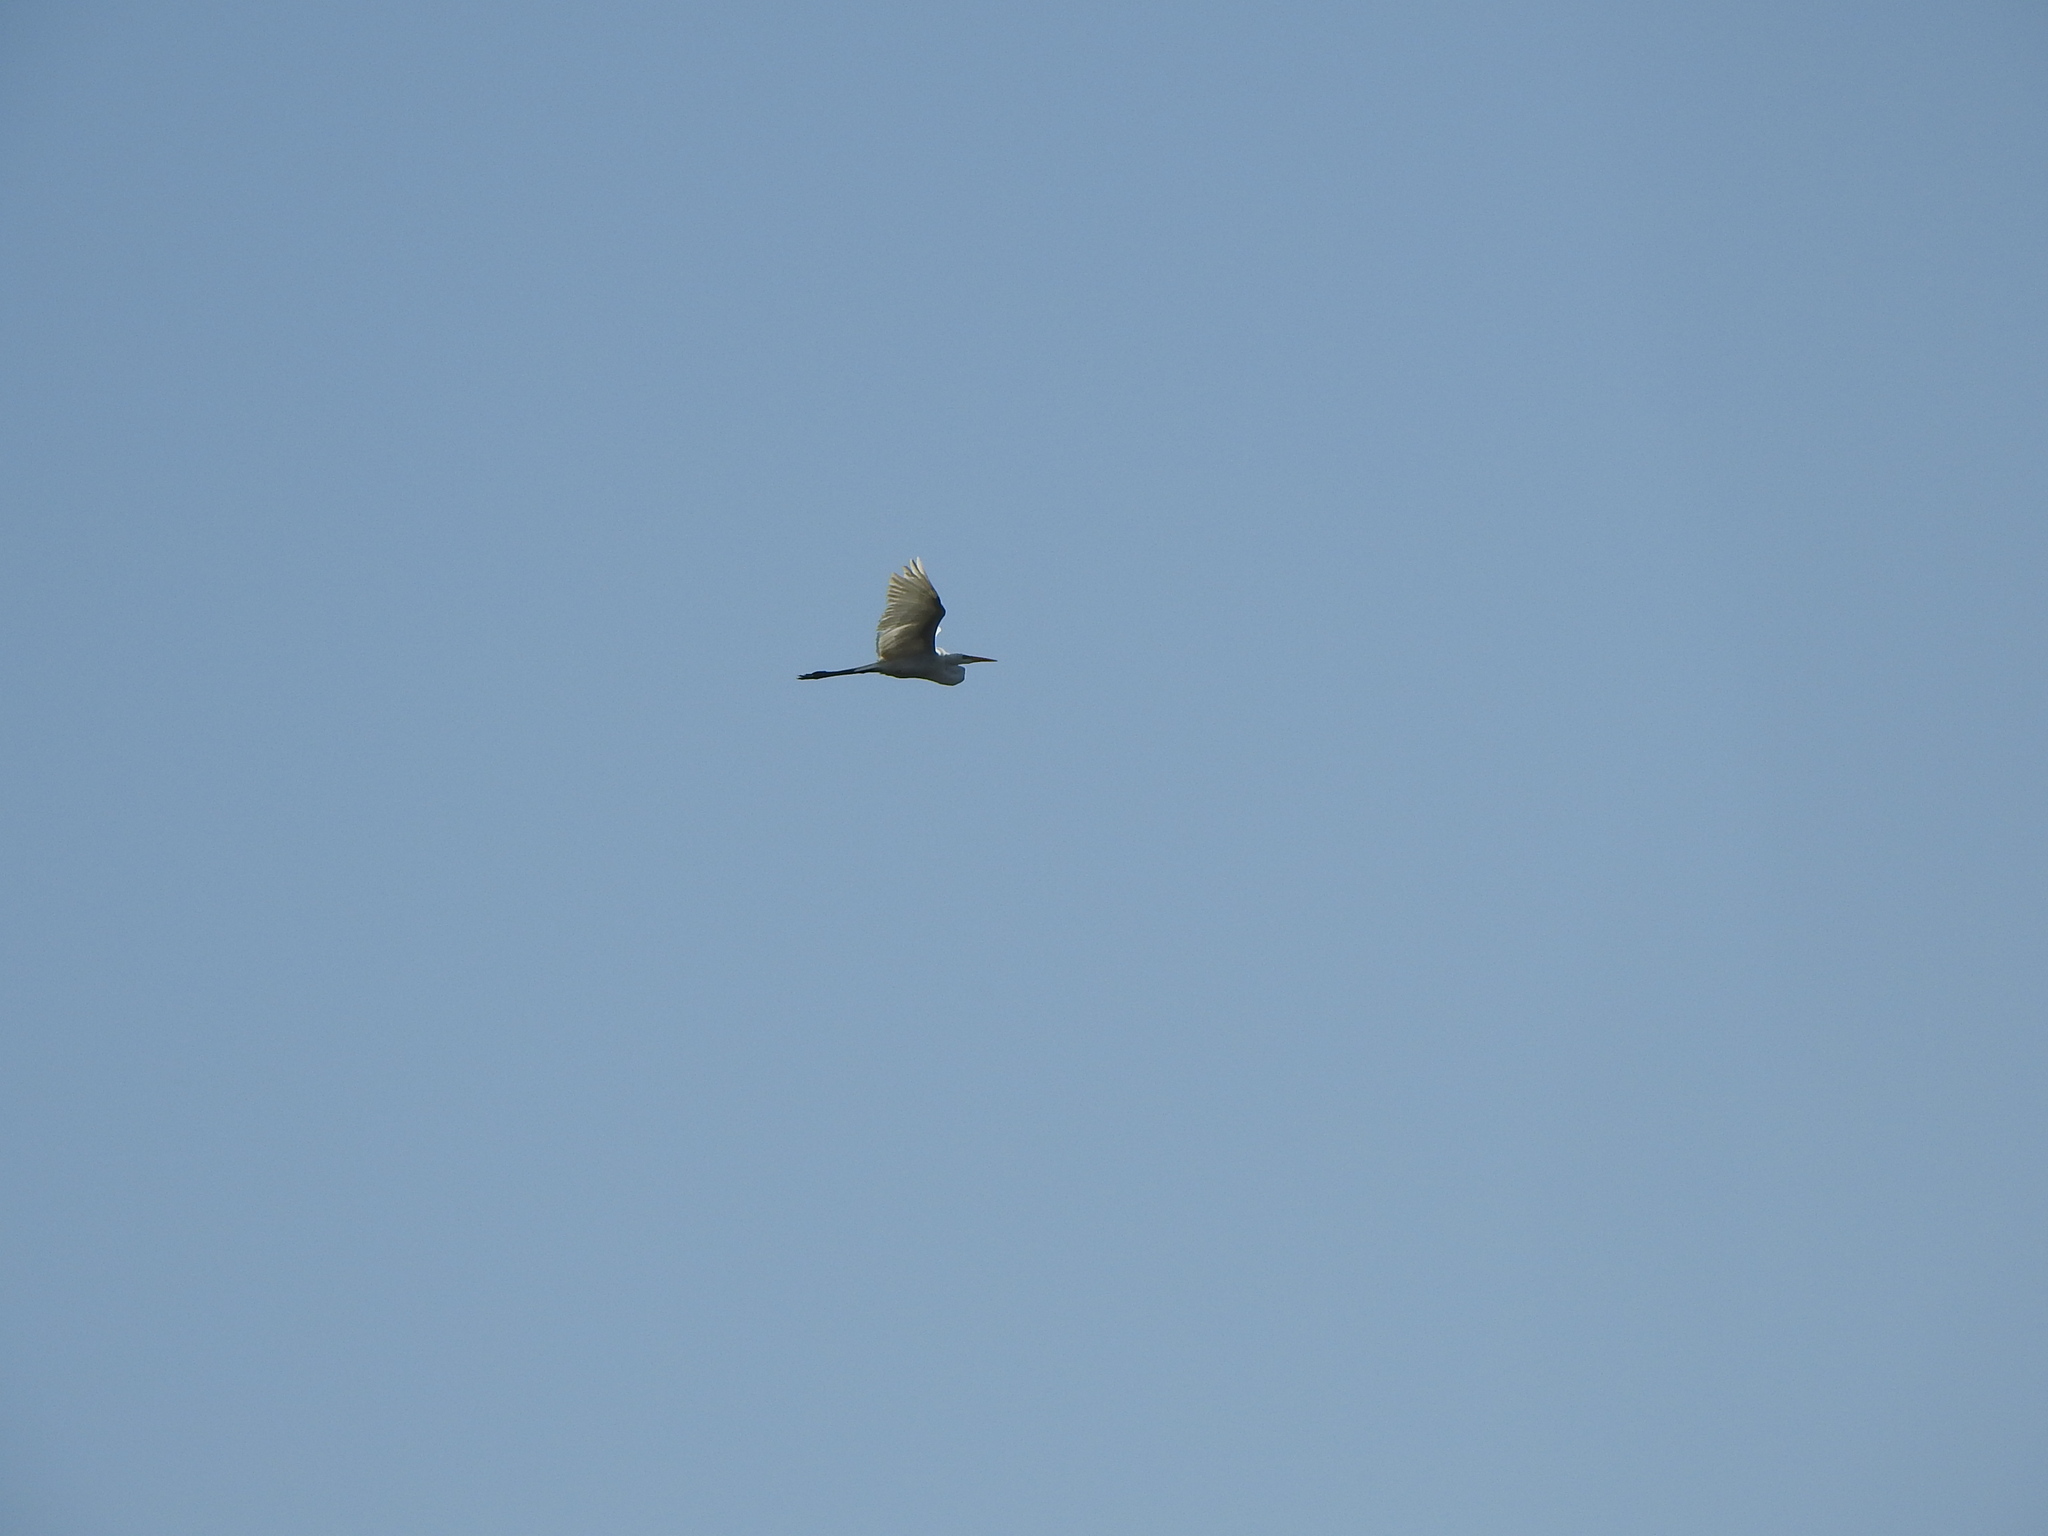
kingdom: Animalia
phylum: Chordata
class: Aves
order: Pelecaniformes
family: Ardeidae
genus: Ardea
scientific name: Ardea alba
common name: Great egret
